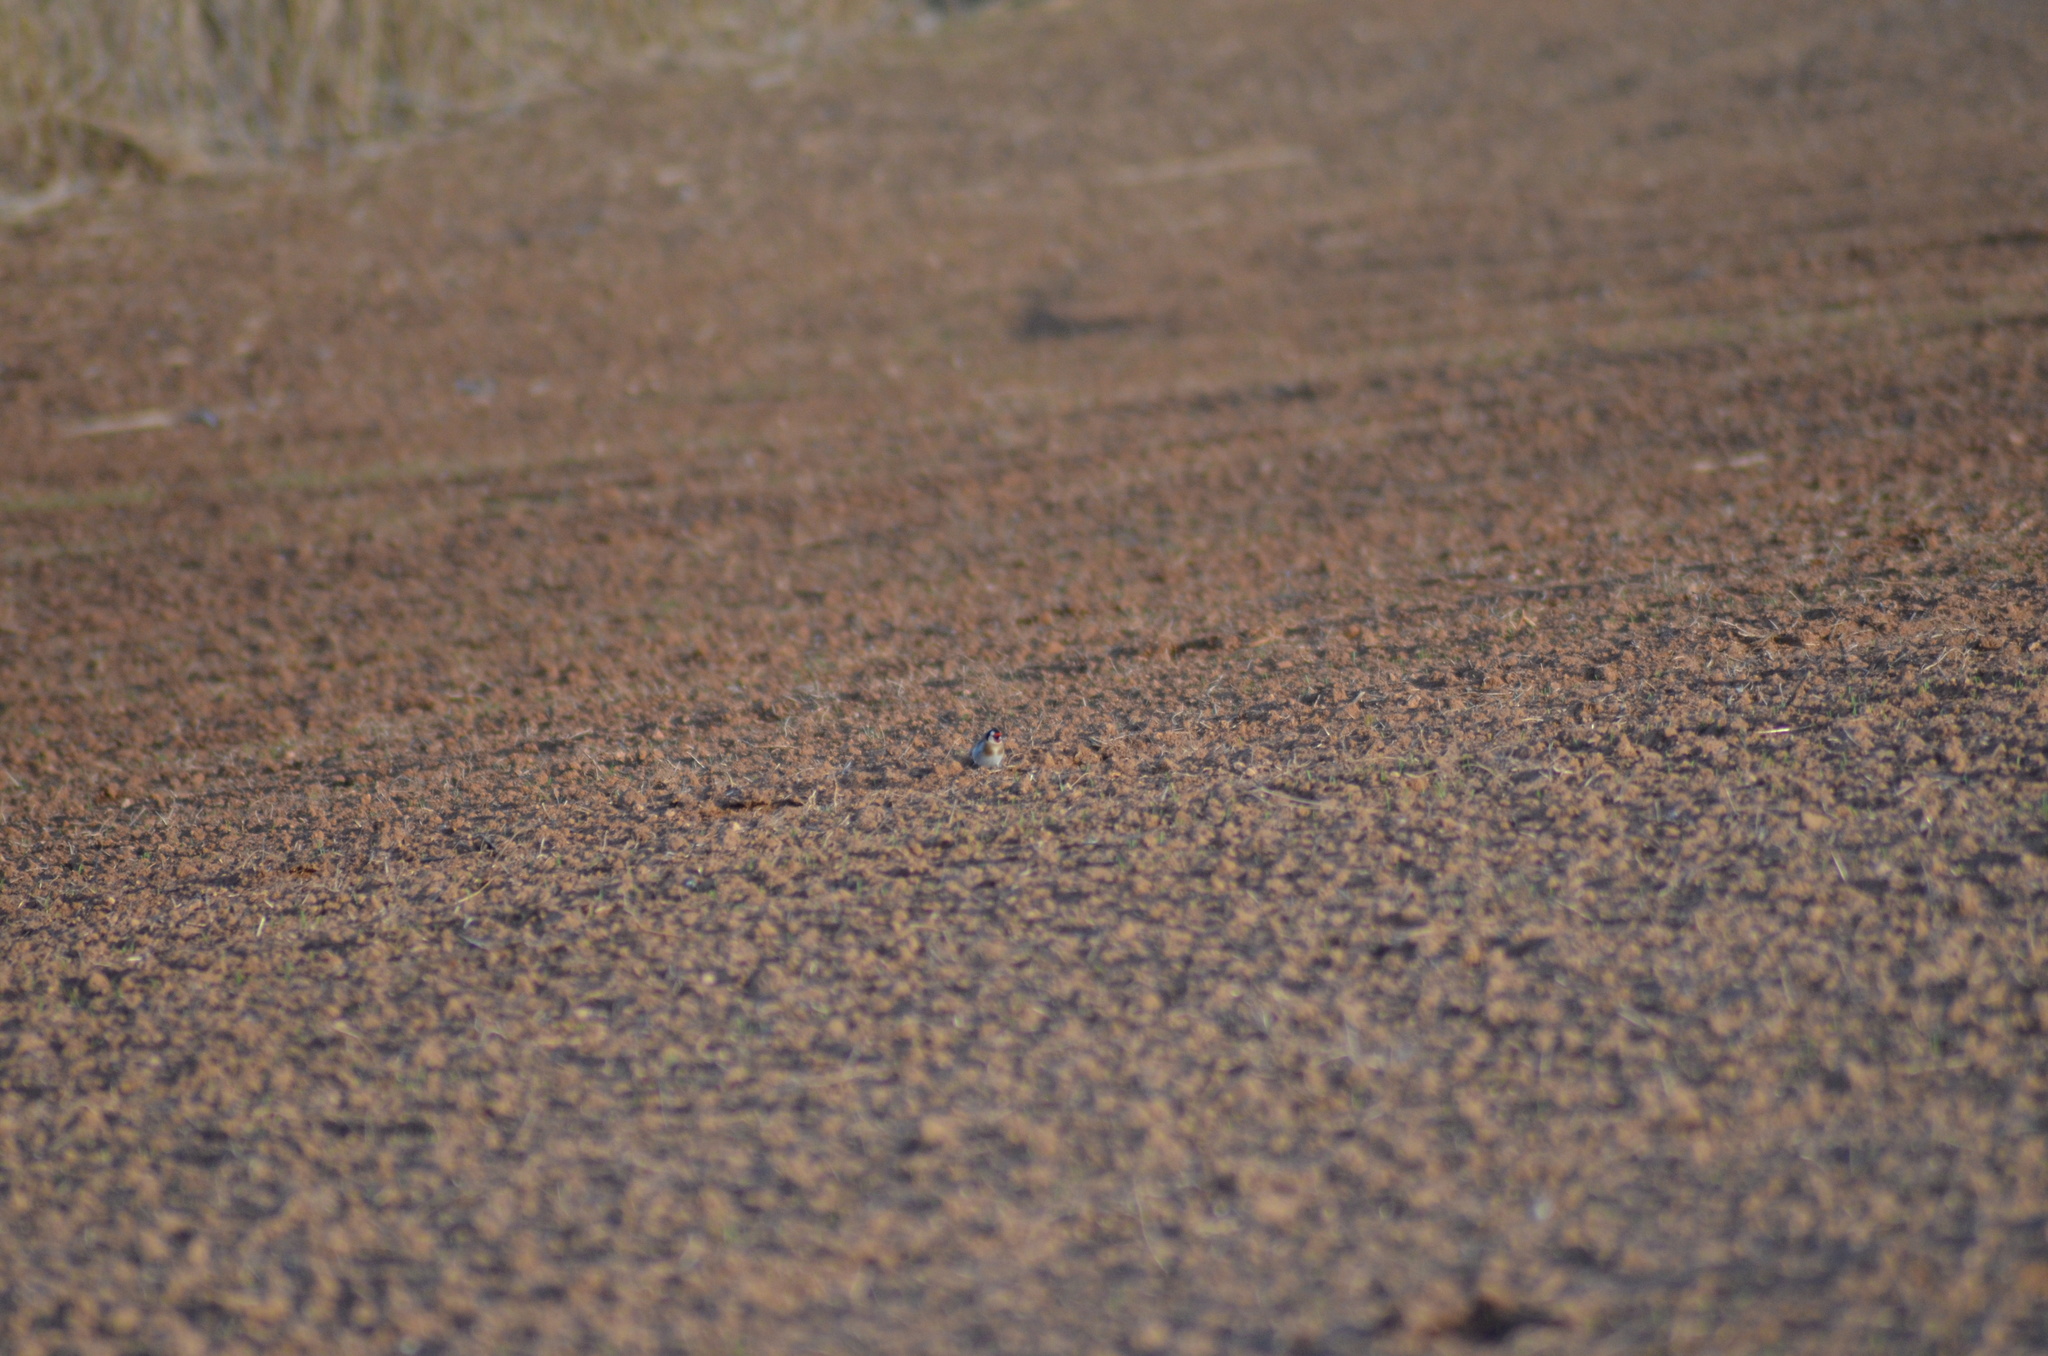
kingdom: Animalia
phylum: Chordata
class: Aves
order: Passeriformes
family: Fringillidae
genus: Carduelis
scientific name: Carduelis carduelis
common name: European goldfinch
